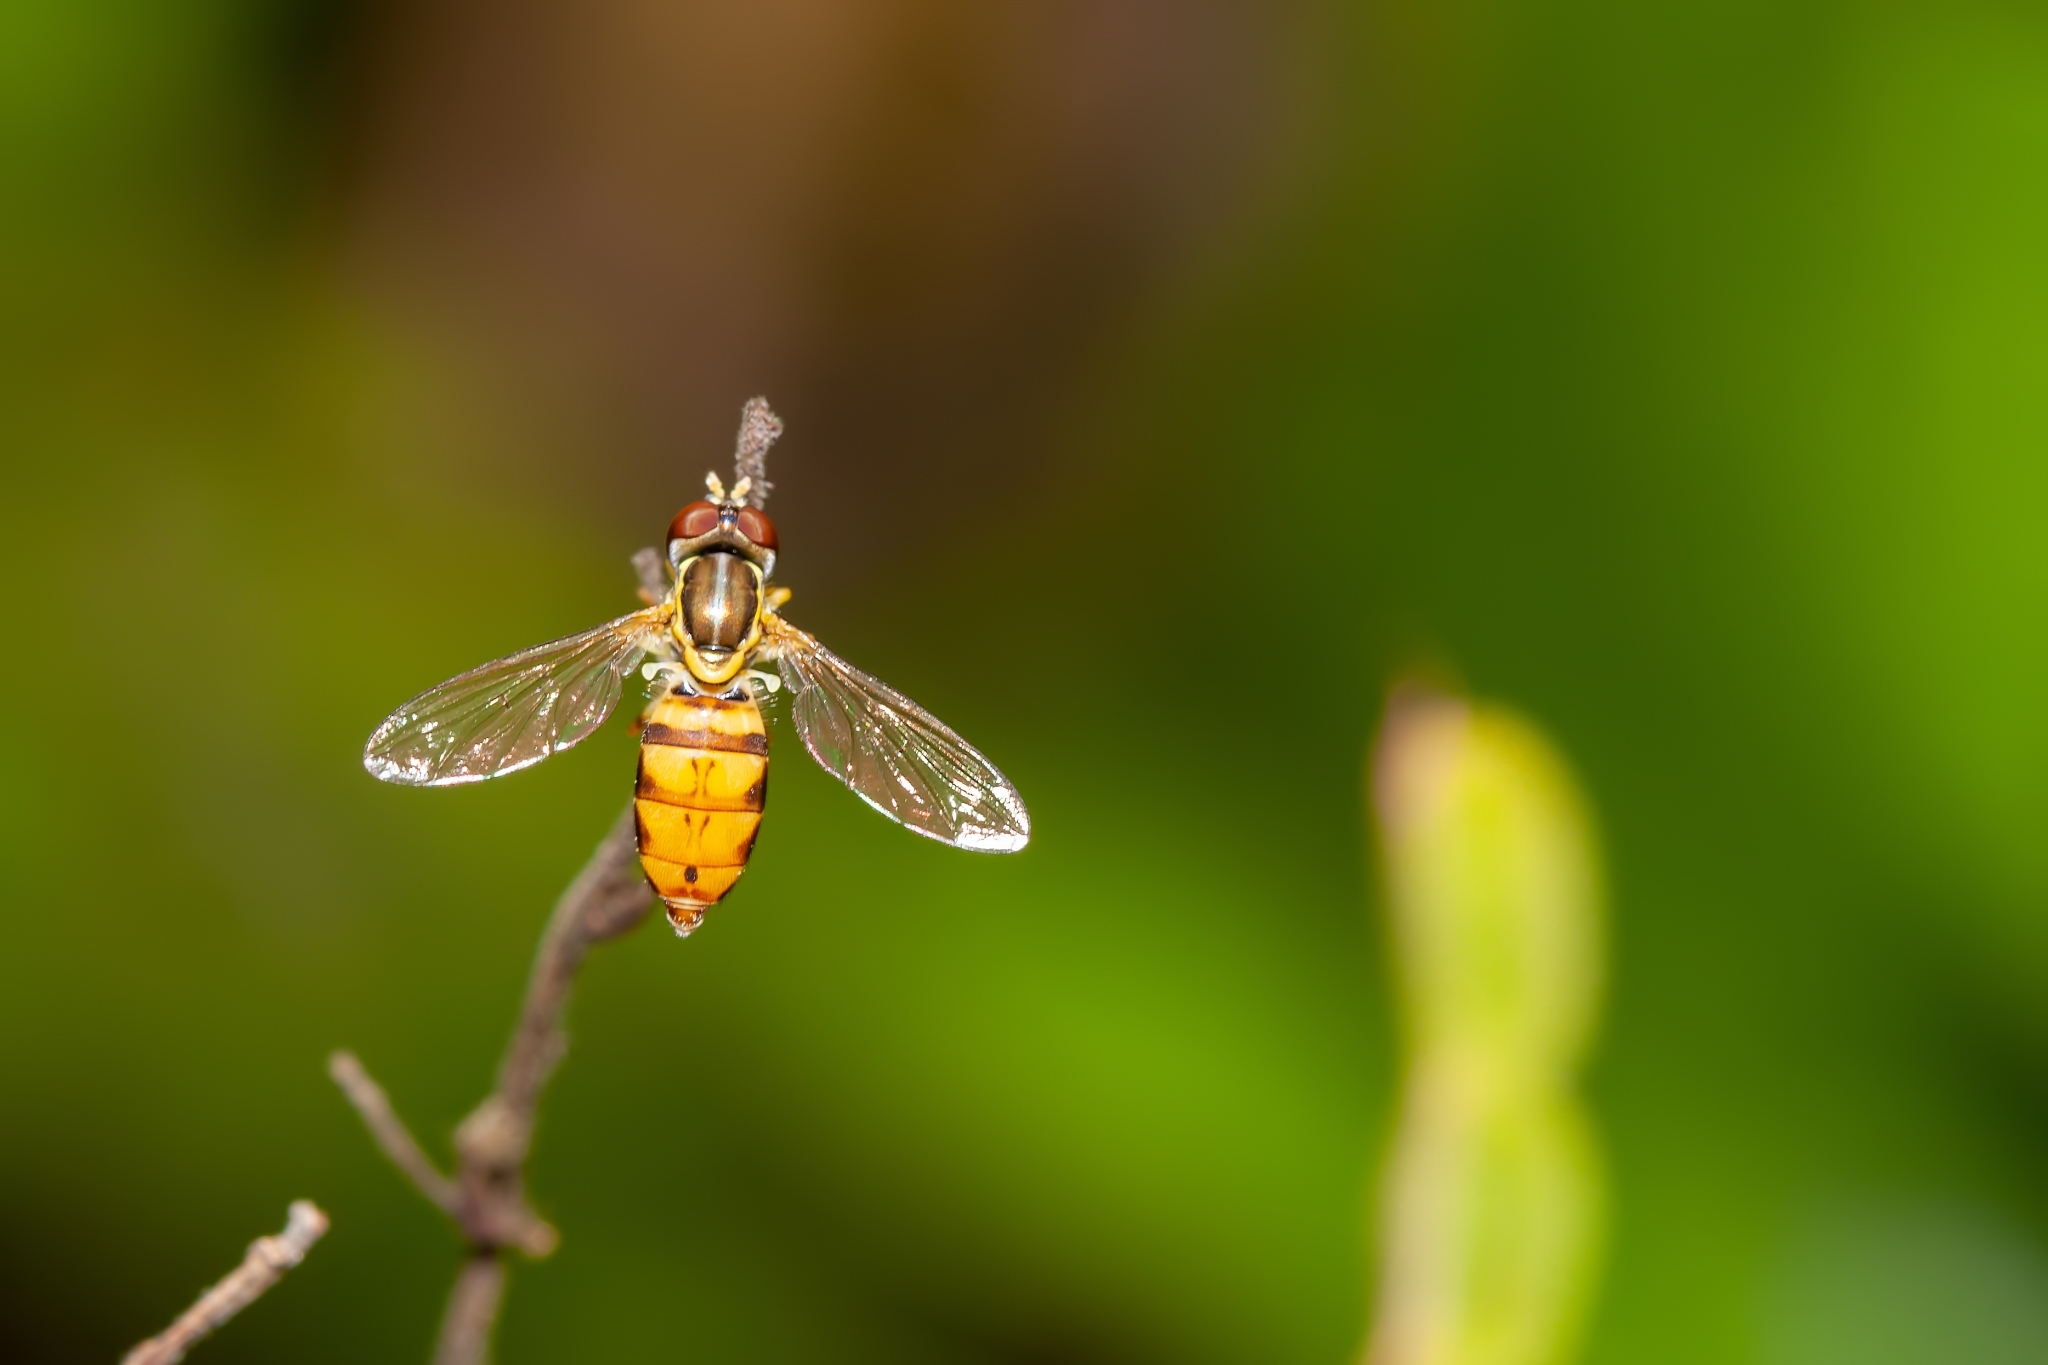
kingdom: Animalia
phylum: Arthropoda
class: Insecta
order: Diptera
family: Syrphidae
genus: Toxomerus
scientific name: Toxomerus floralis
